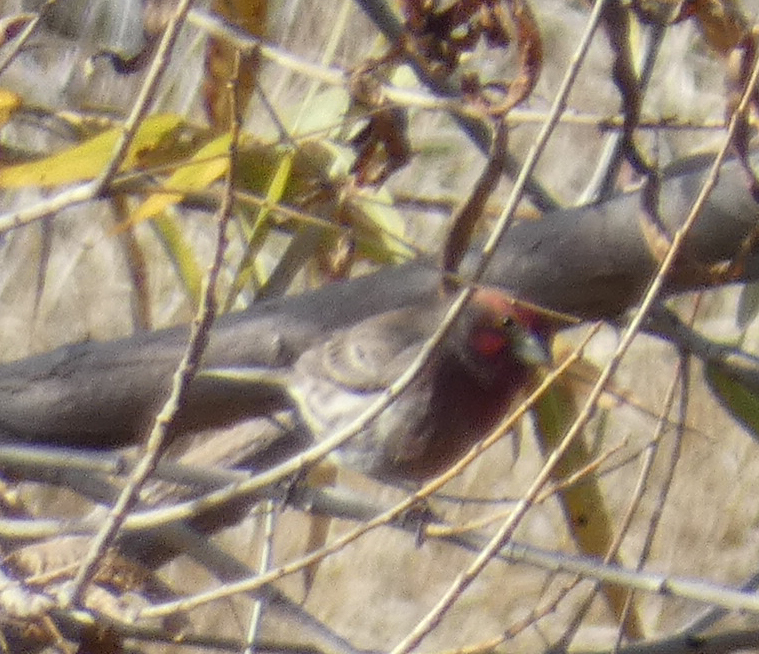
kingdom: Animalia
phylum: Chordata
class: Aves
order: Passeriformes
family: Fringillidae
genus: Haemorhous
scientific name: Haemorhous mexicanus
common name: House finch
